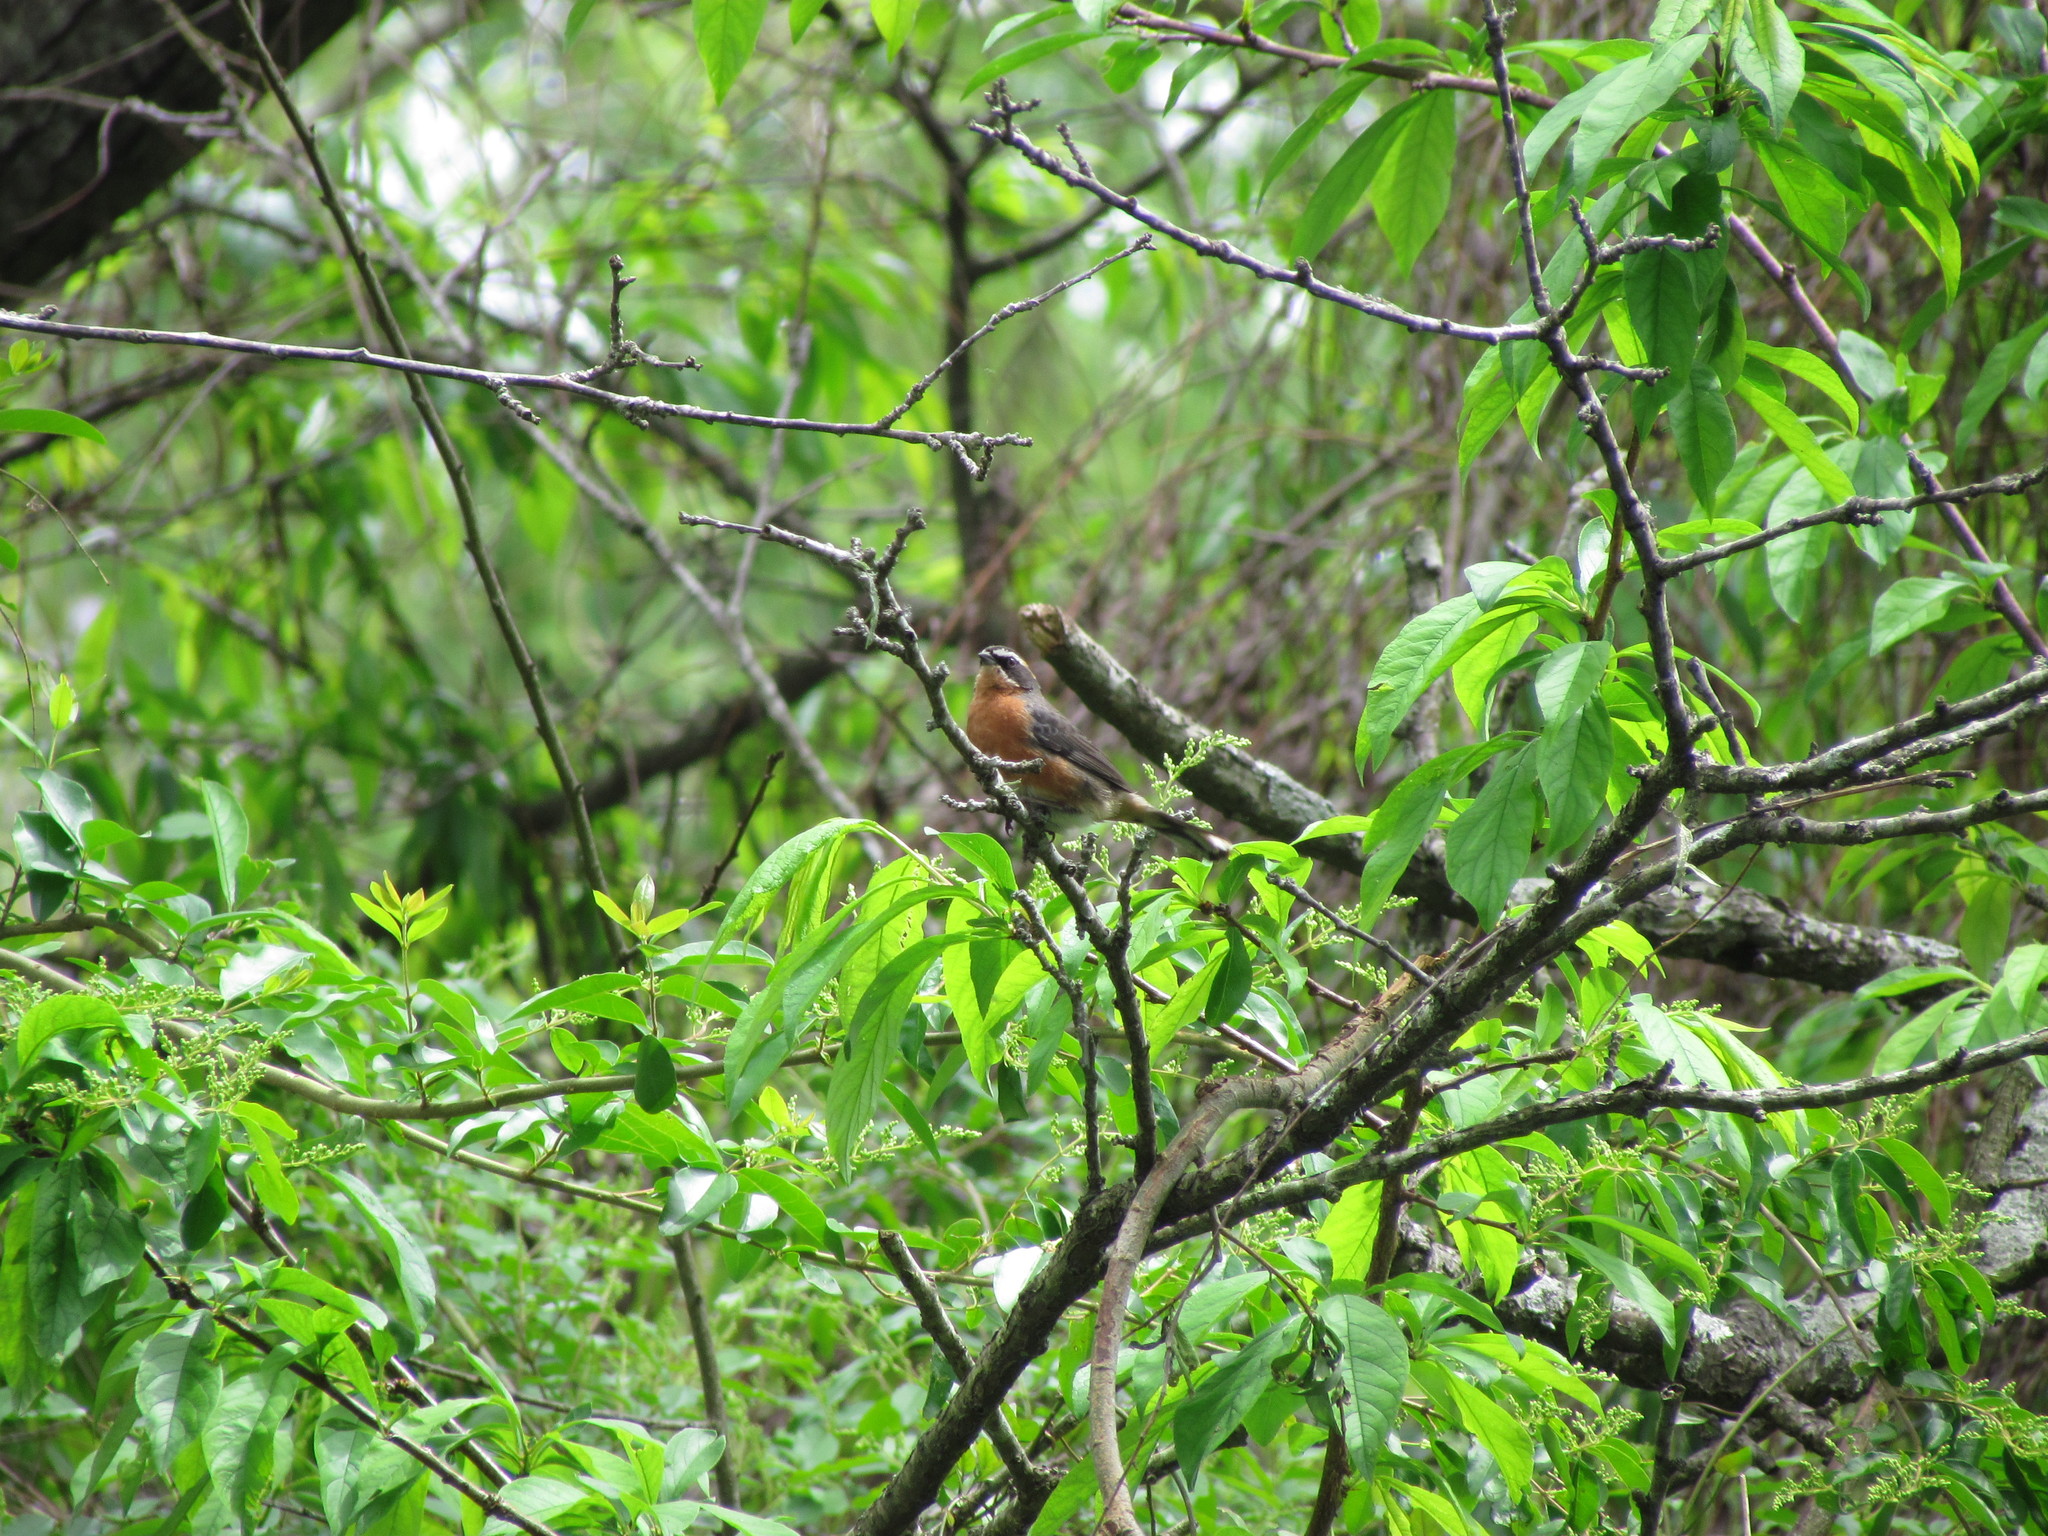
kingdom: Animalia
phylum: Chordata
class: Aves
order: Passeriformes
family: Thraupidae
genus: Poospiza
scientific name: Poospiza nigrorufa
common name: Black-and-rufous warbling finch
